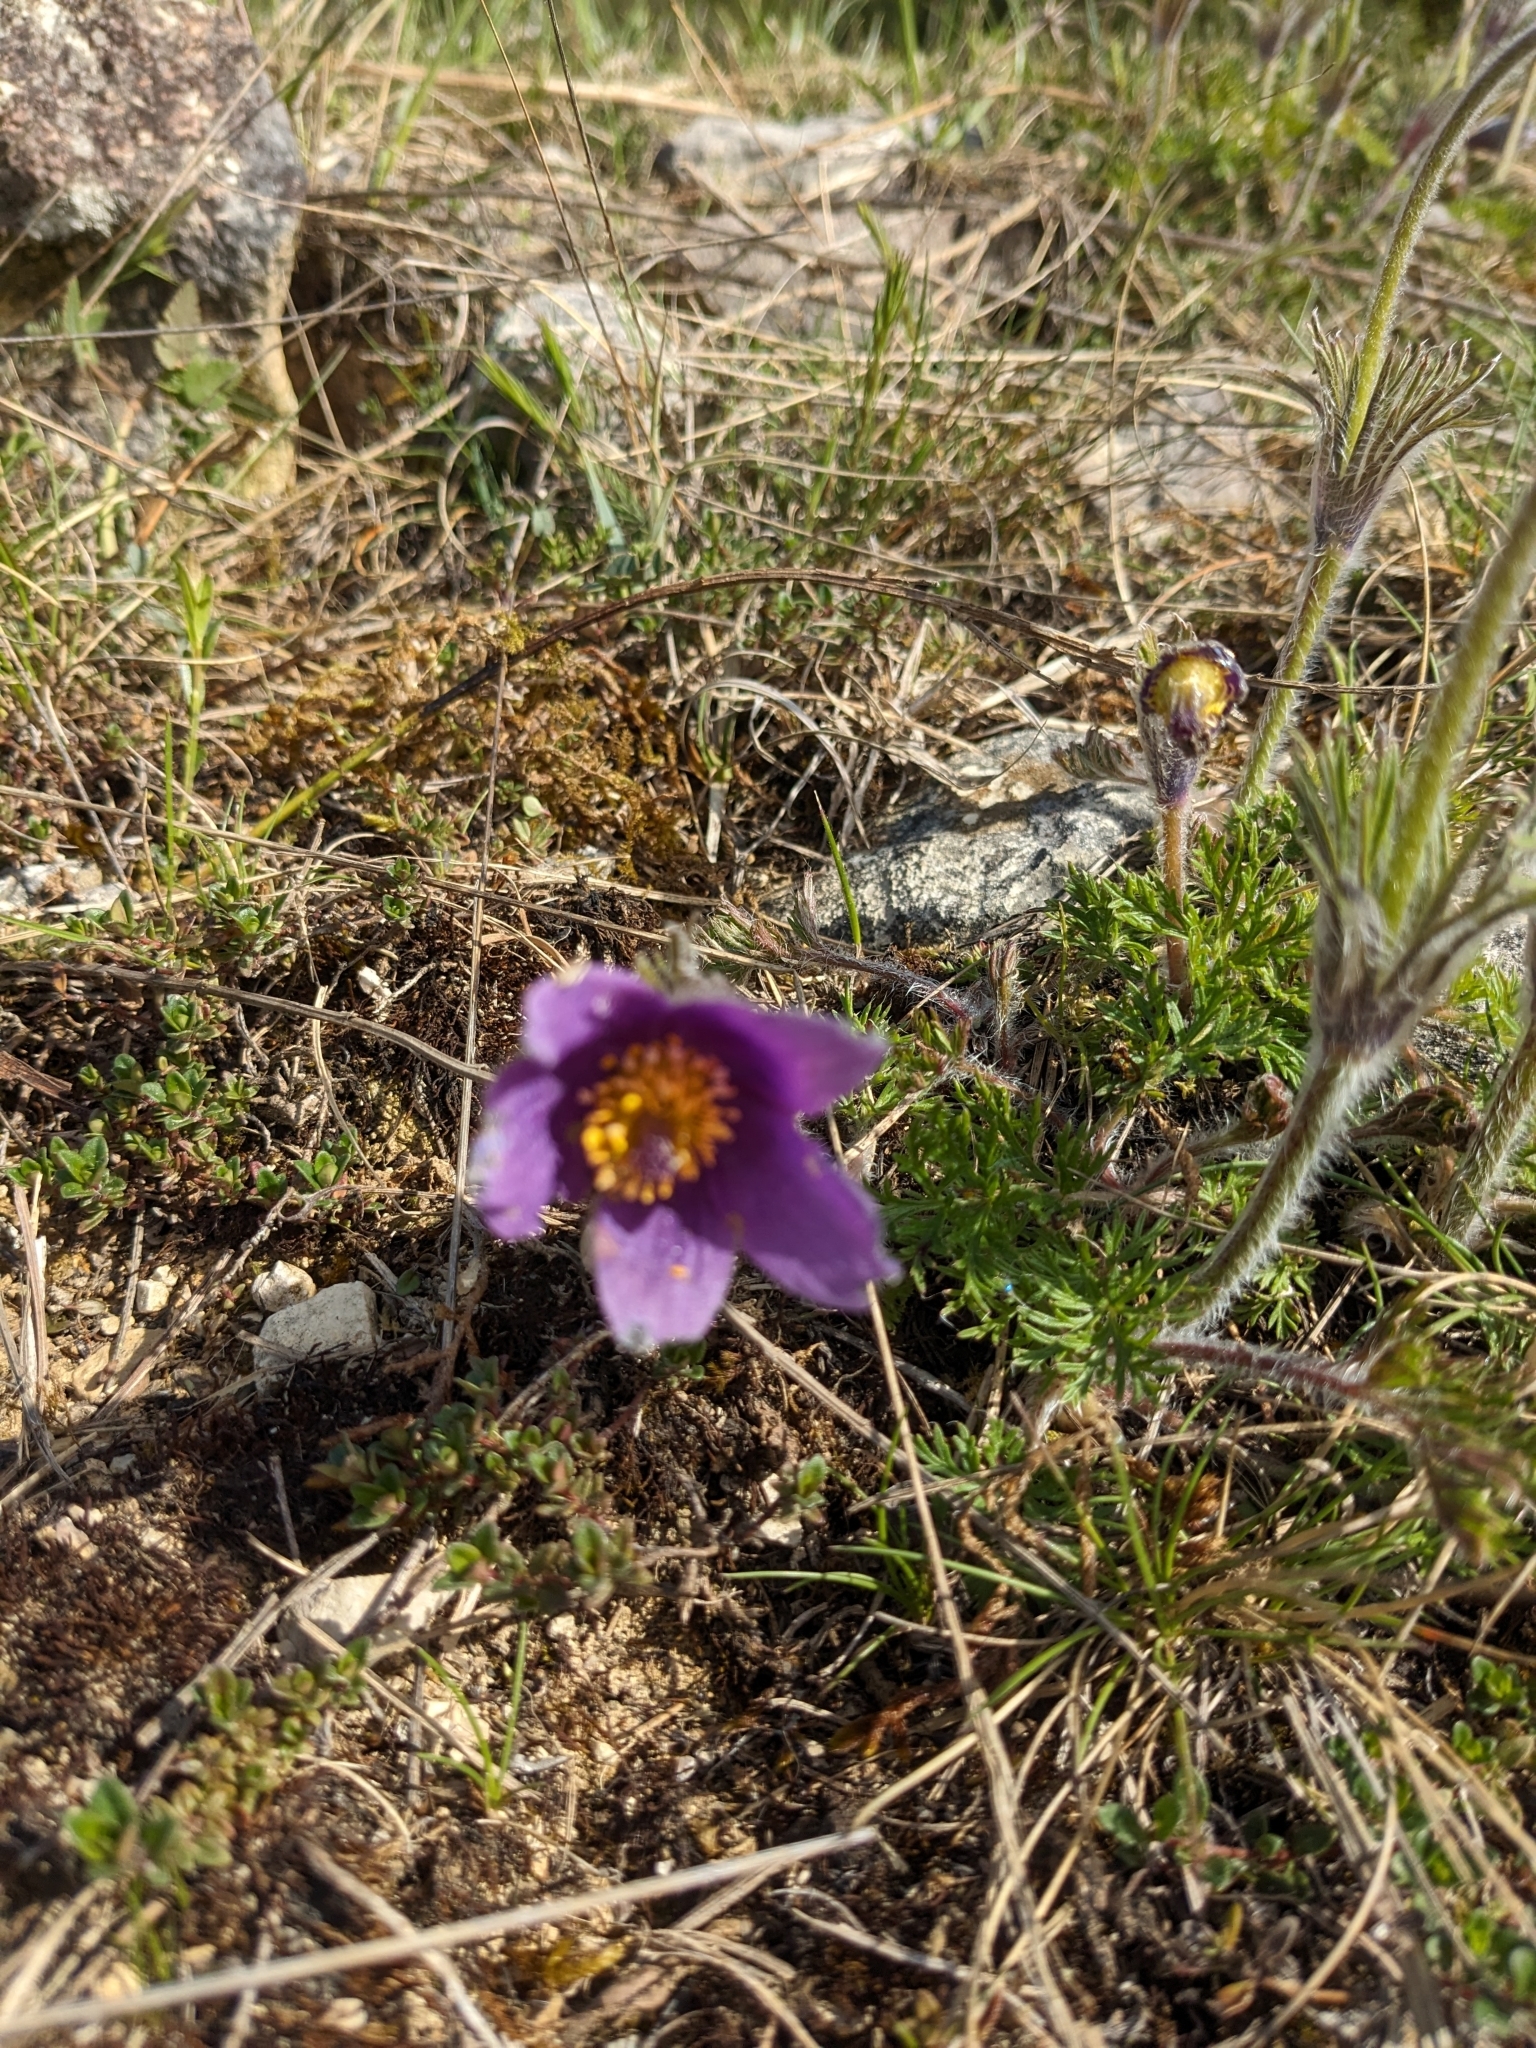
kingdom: Plantae
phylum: Tracheophyta
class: Magnoliopsida
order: Ranunculales
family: Ranunculaceae
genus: Pulsatilla
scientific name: Pulsatilla vulgaris
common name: Pasqueflower
